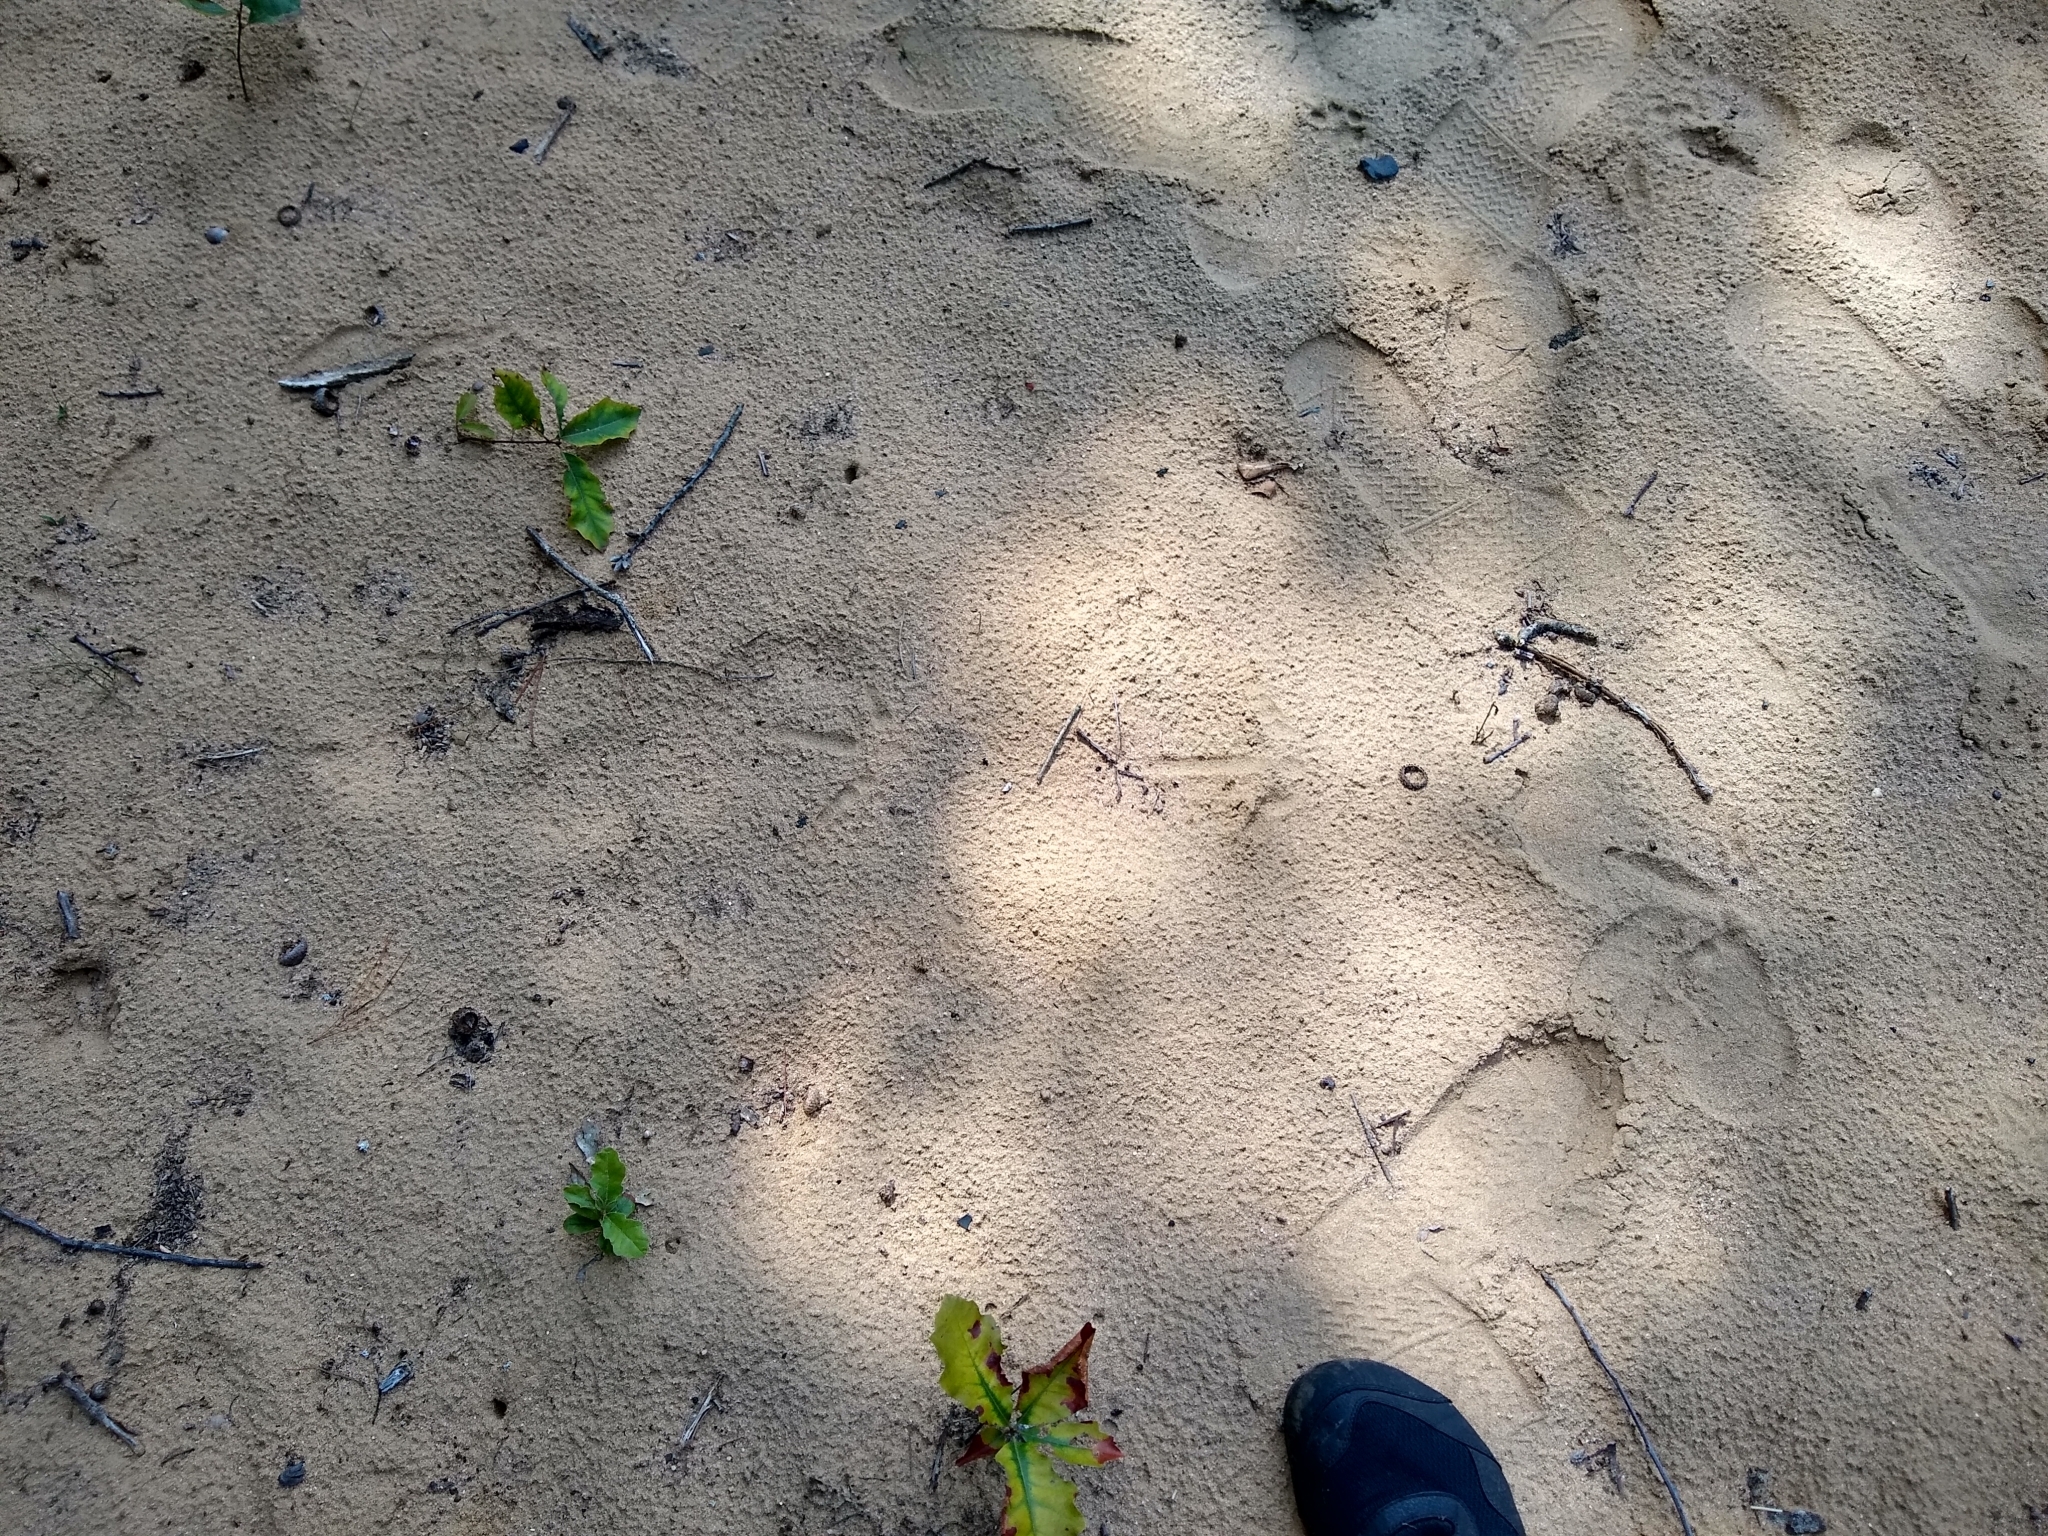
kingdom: Animalia
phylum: Chordata
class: Aves
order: Galliformes
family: Phasianidae
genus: Meleagris
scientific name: Meleagris gallopavo
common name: Wild turkey
